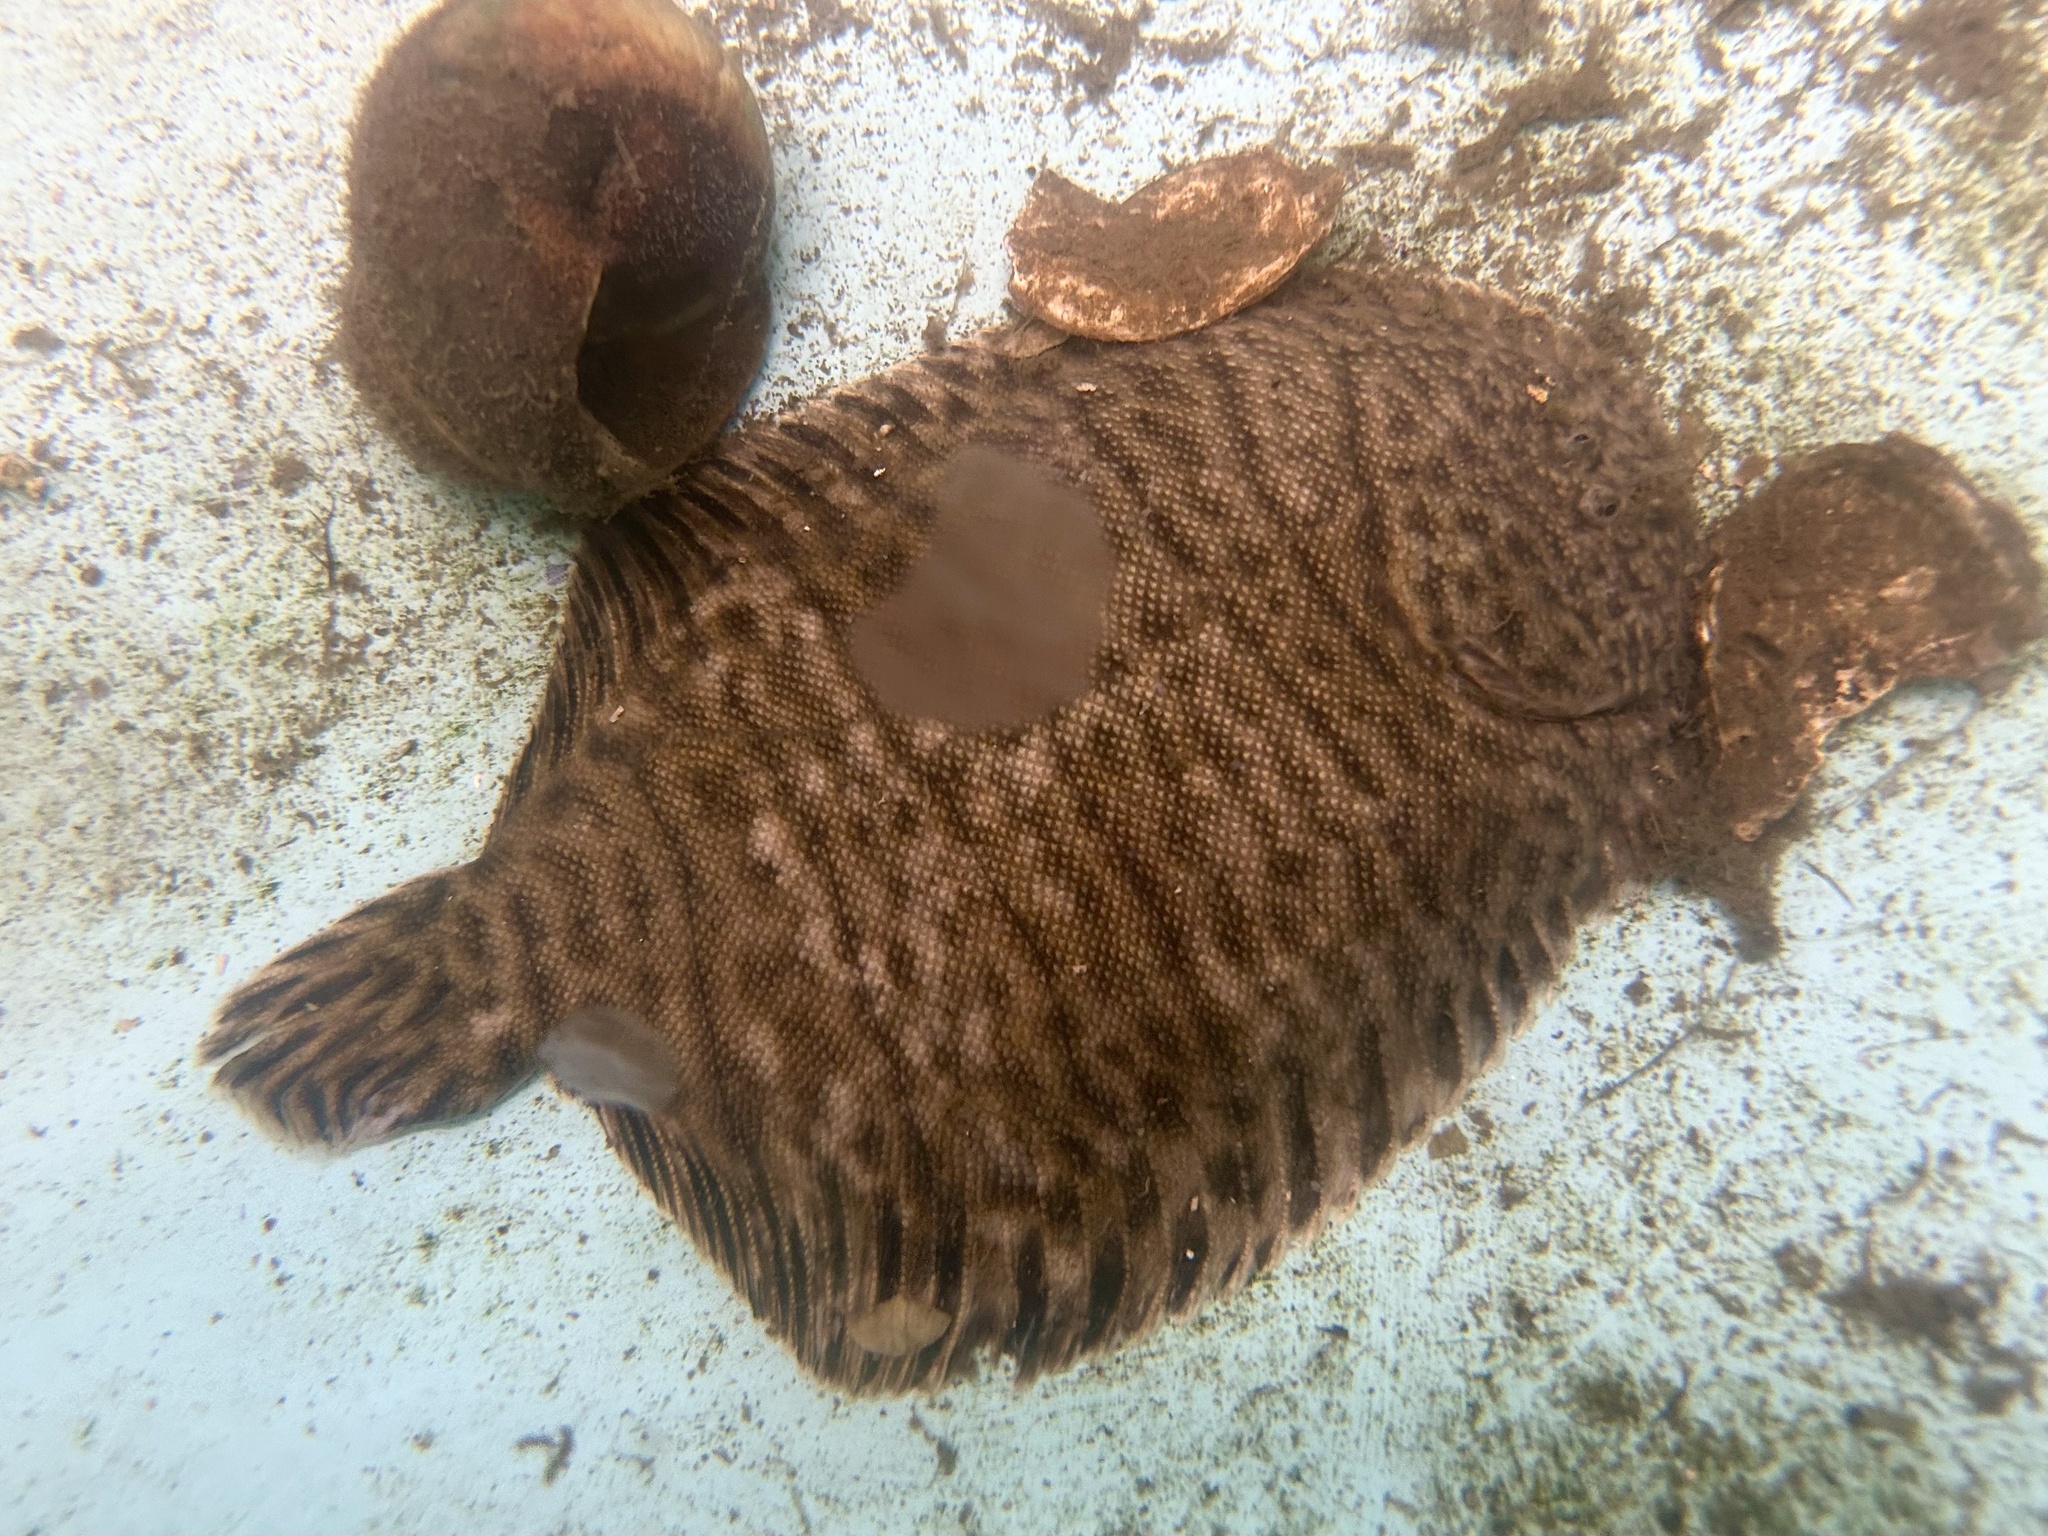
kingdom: Animalia
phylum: Chordata
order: Pleuronectiformes
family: Achiridae
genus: Trinectes
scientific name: Trinectes maculatus
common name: Hogchoker
